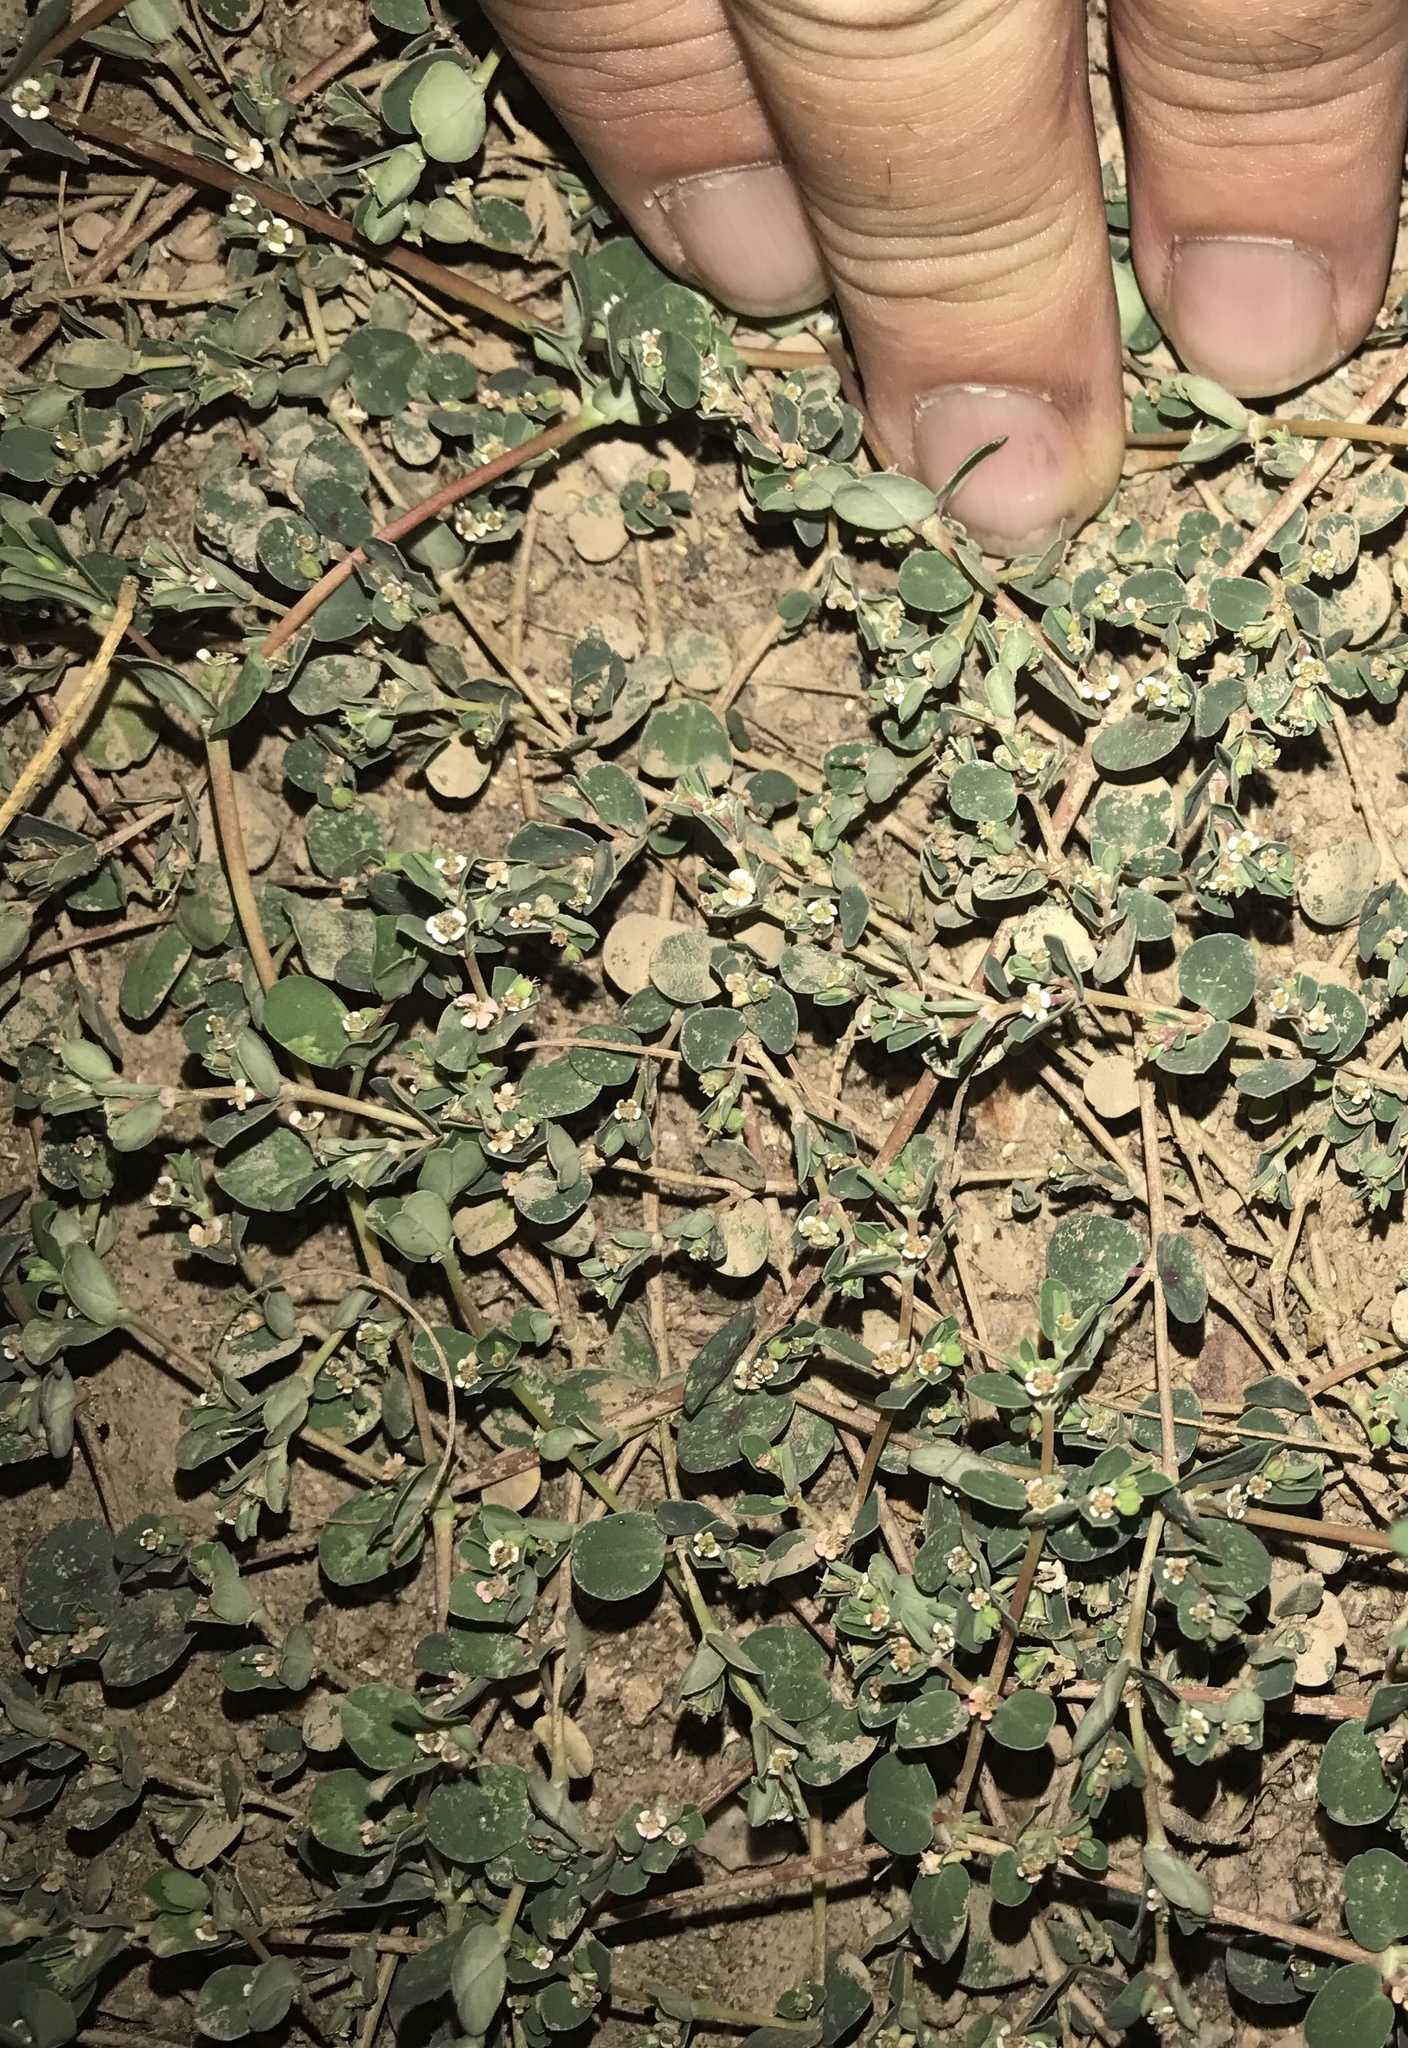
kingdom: Plantae
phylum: Tracheophyta
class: Magnoliopsida
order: Malpighiales
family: Euphorbiaceae
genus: Euphorbia
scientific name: Euphorbia albomarginata
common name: Whitemargin sandmat
